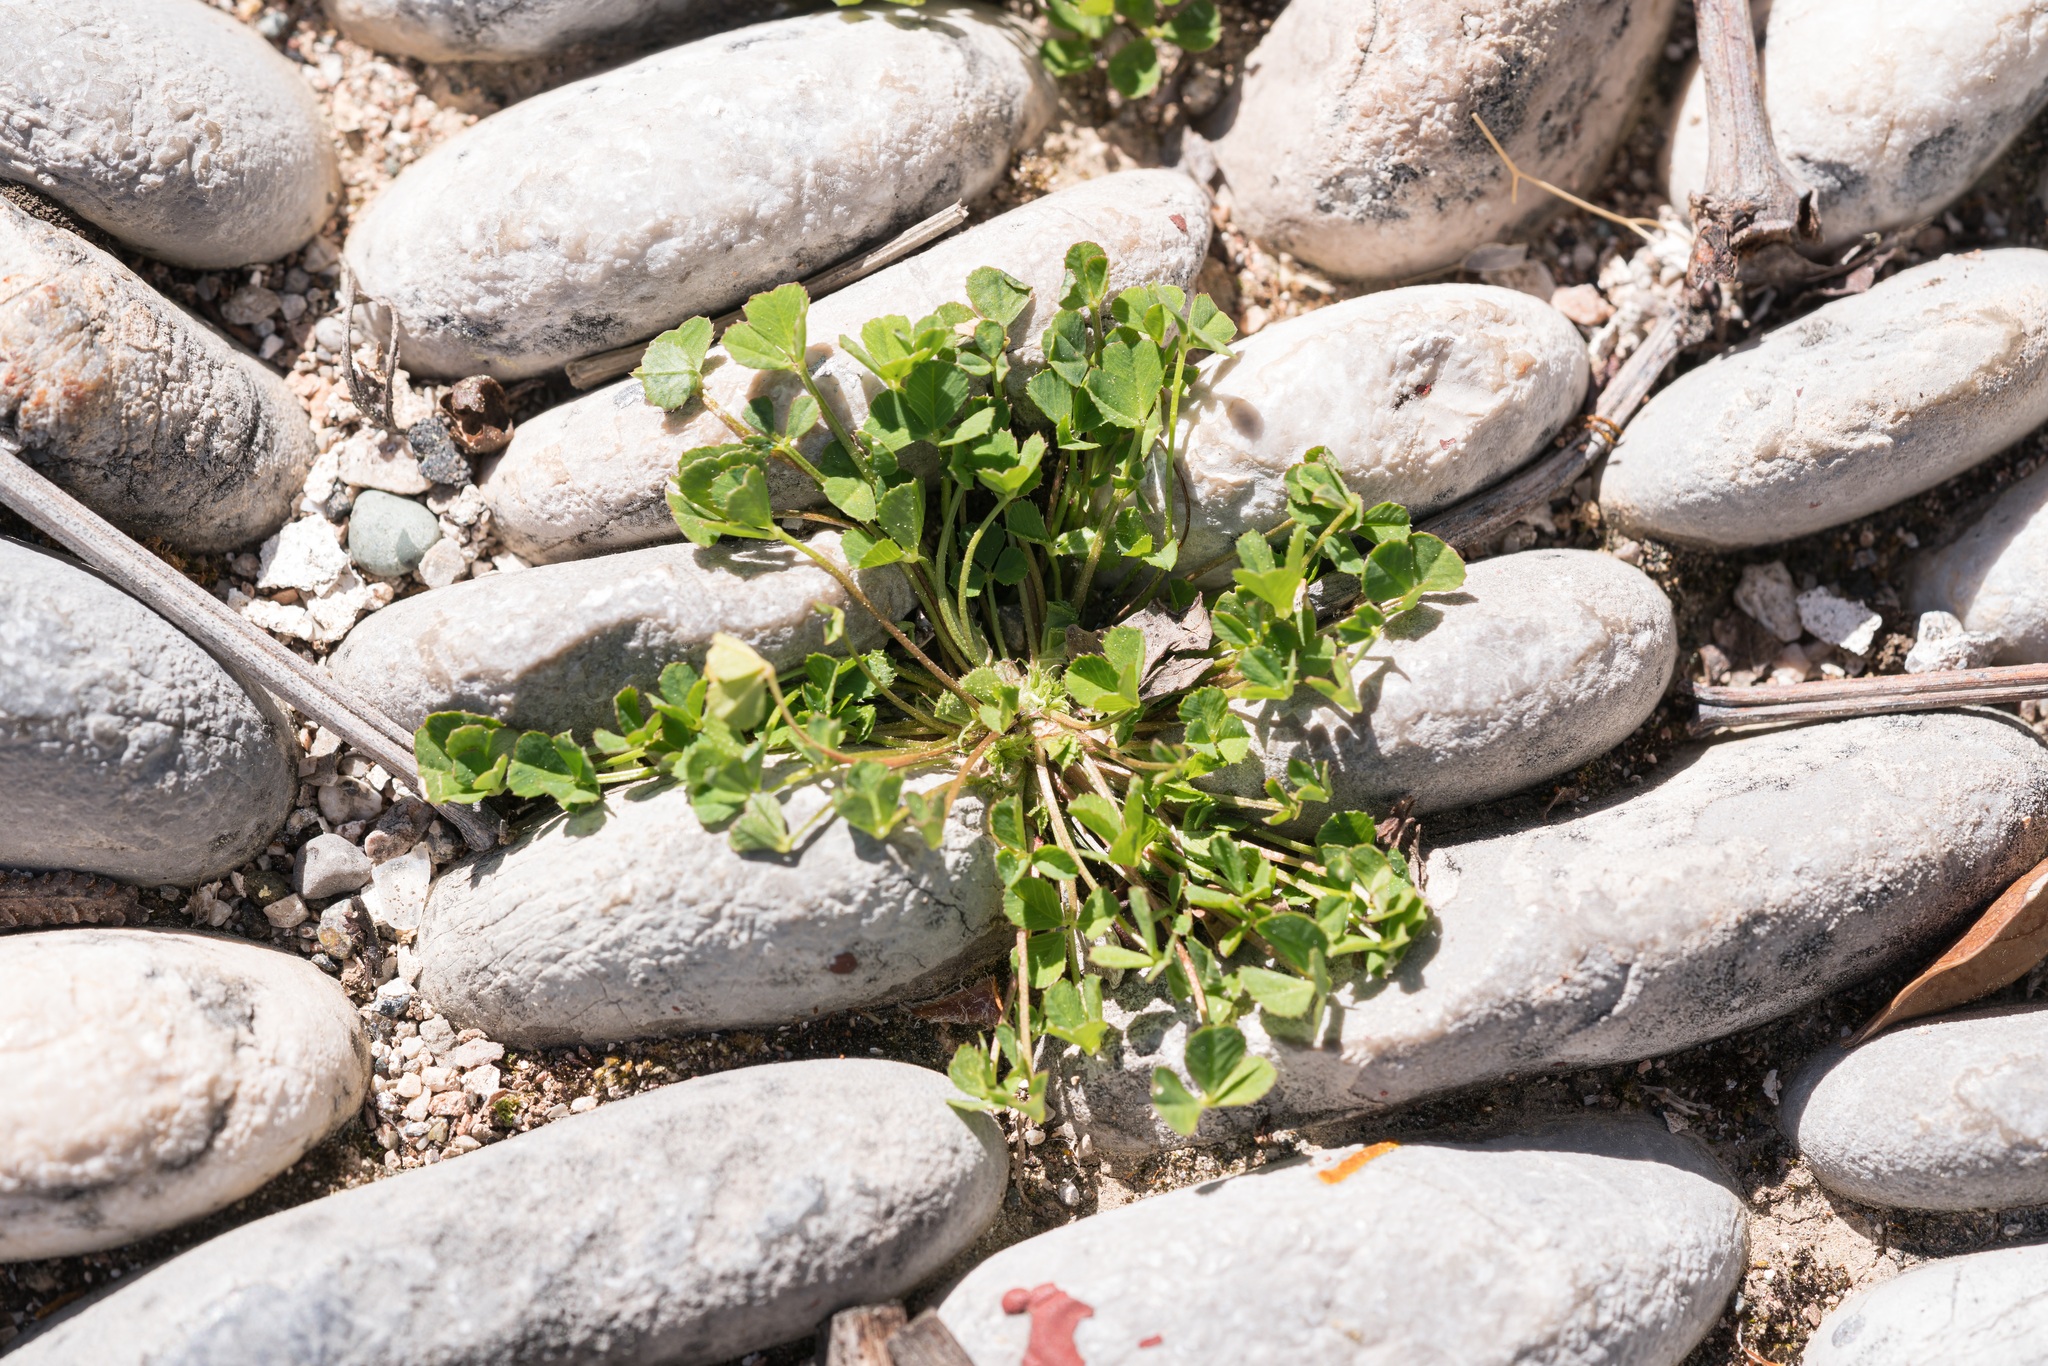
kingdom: Plantae
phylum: Tracheophyta
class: Magnoliopsida
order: Fabales
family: Fabaceae
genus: Trifolium
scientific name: Trifolium suffocatum
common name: Suffocated clover
